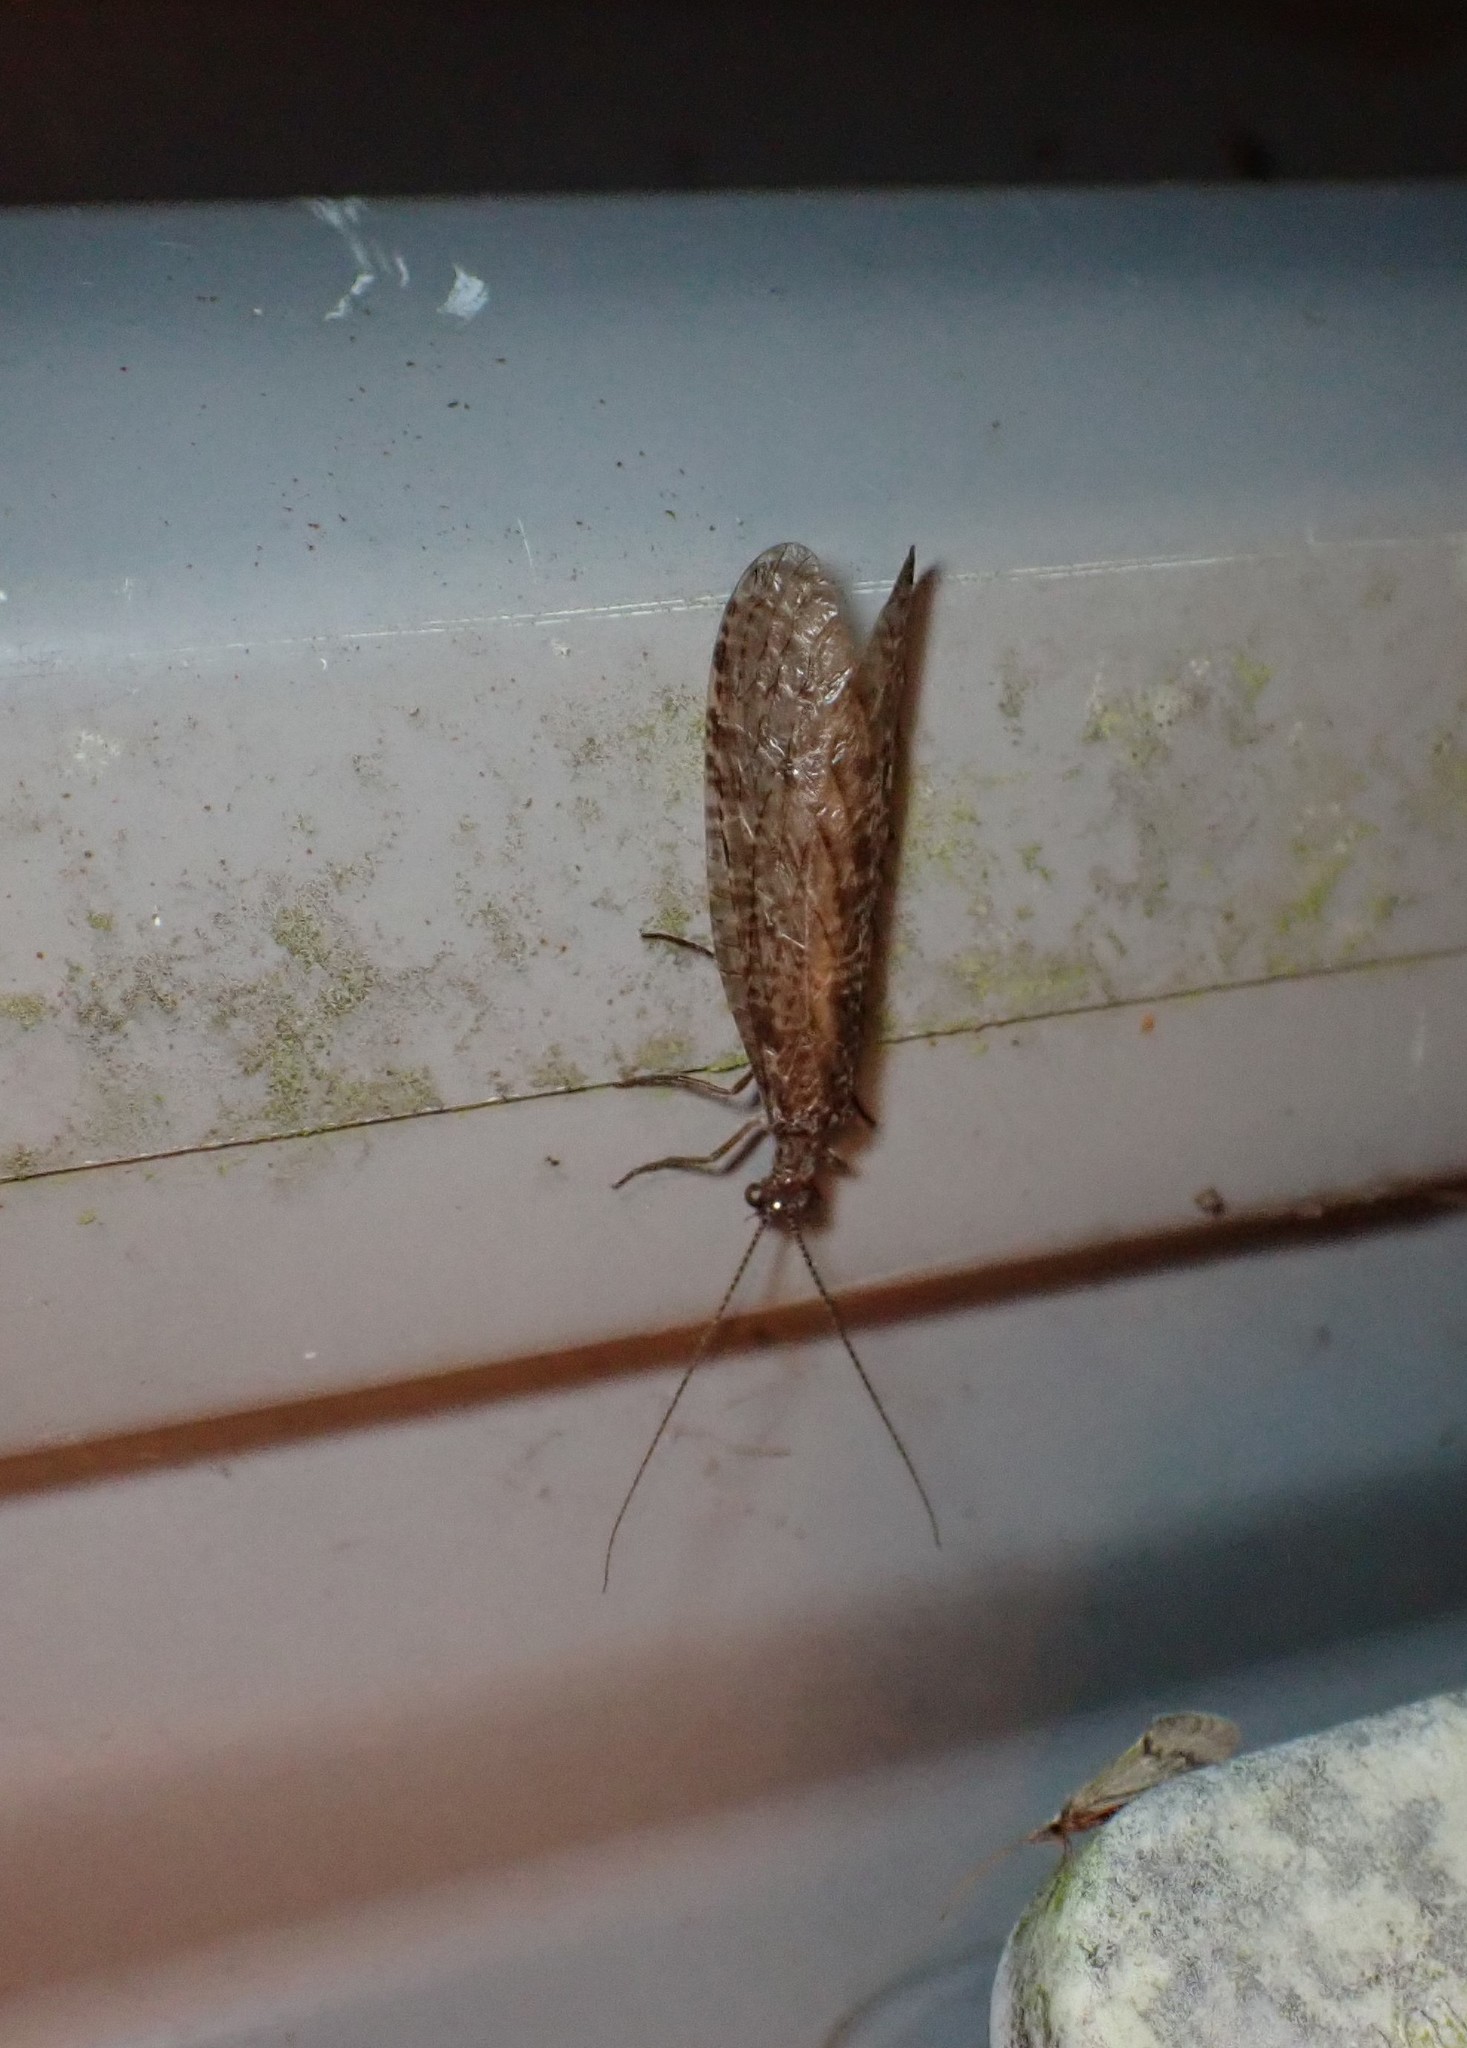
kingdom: Animalia
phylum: Arthropoda
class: Insecta
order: Megaloptera
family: Corydalidae
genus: Archichauliodes
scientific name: Archichauliodes diversus
